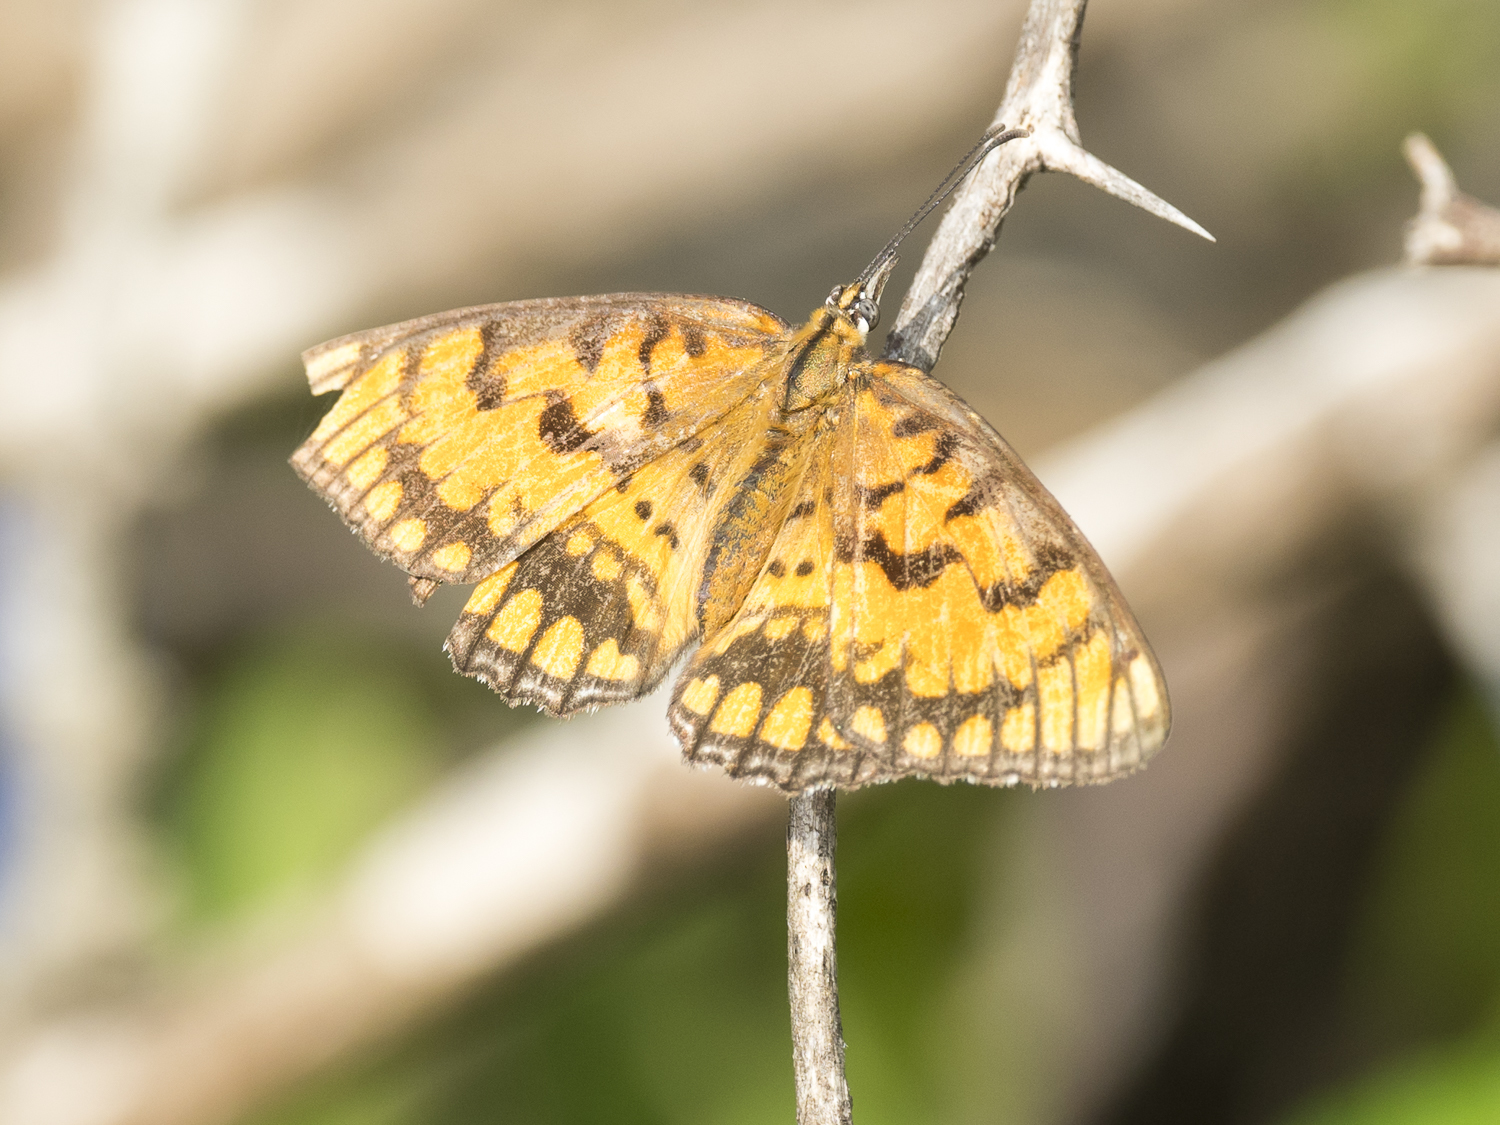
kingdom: Animalia
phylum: Arthropoda
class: Insecta
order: Lepidoptera
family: Nymphalidae
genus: Byblia
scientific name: Byblia ilithyia
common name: Spotted joker
